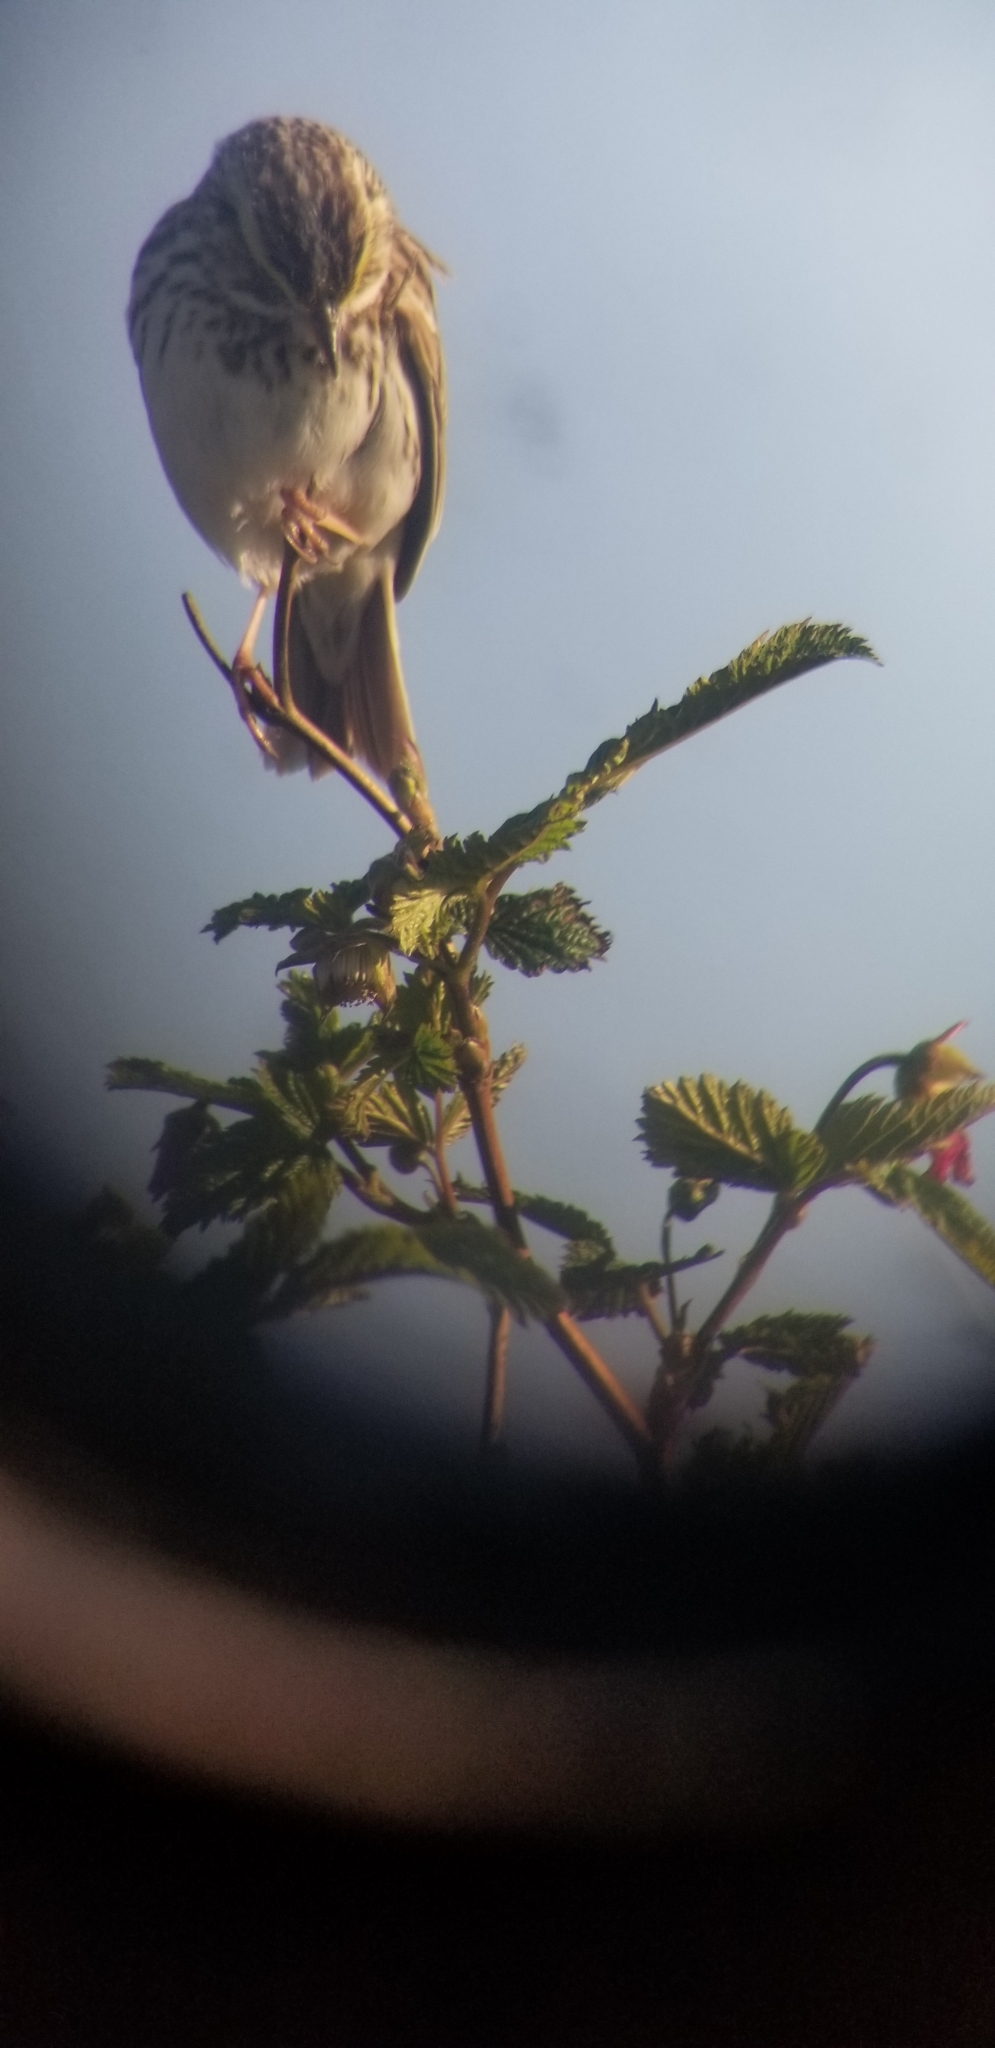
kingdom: Animalia
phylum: Chordata
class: Aves
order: Passeriformes
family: Passerellidae
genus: Passerculus
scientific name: Passerculus sandwichensis
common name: Savannah sparrow
